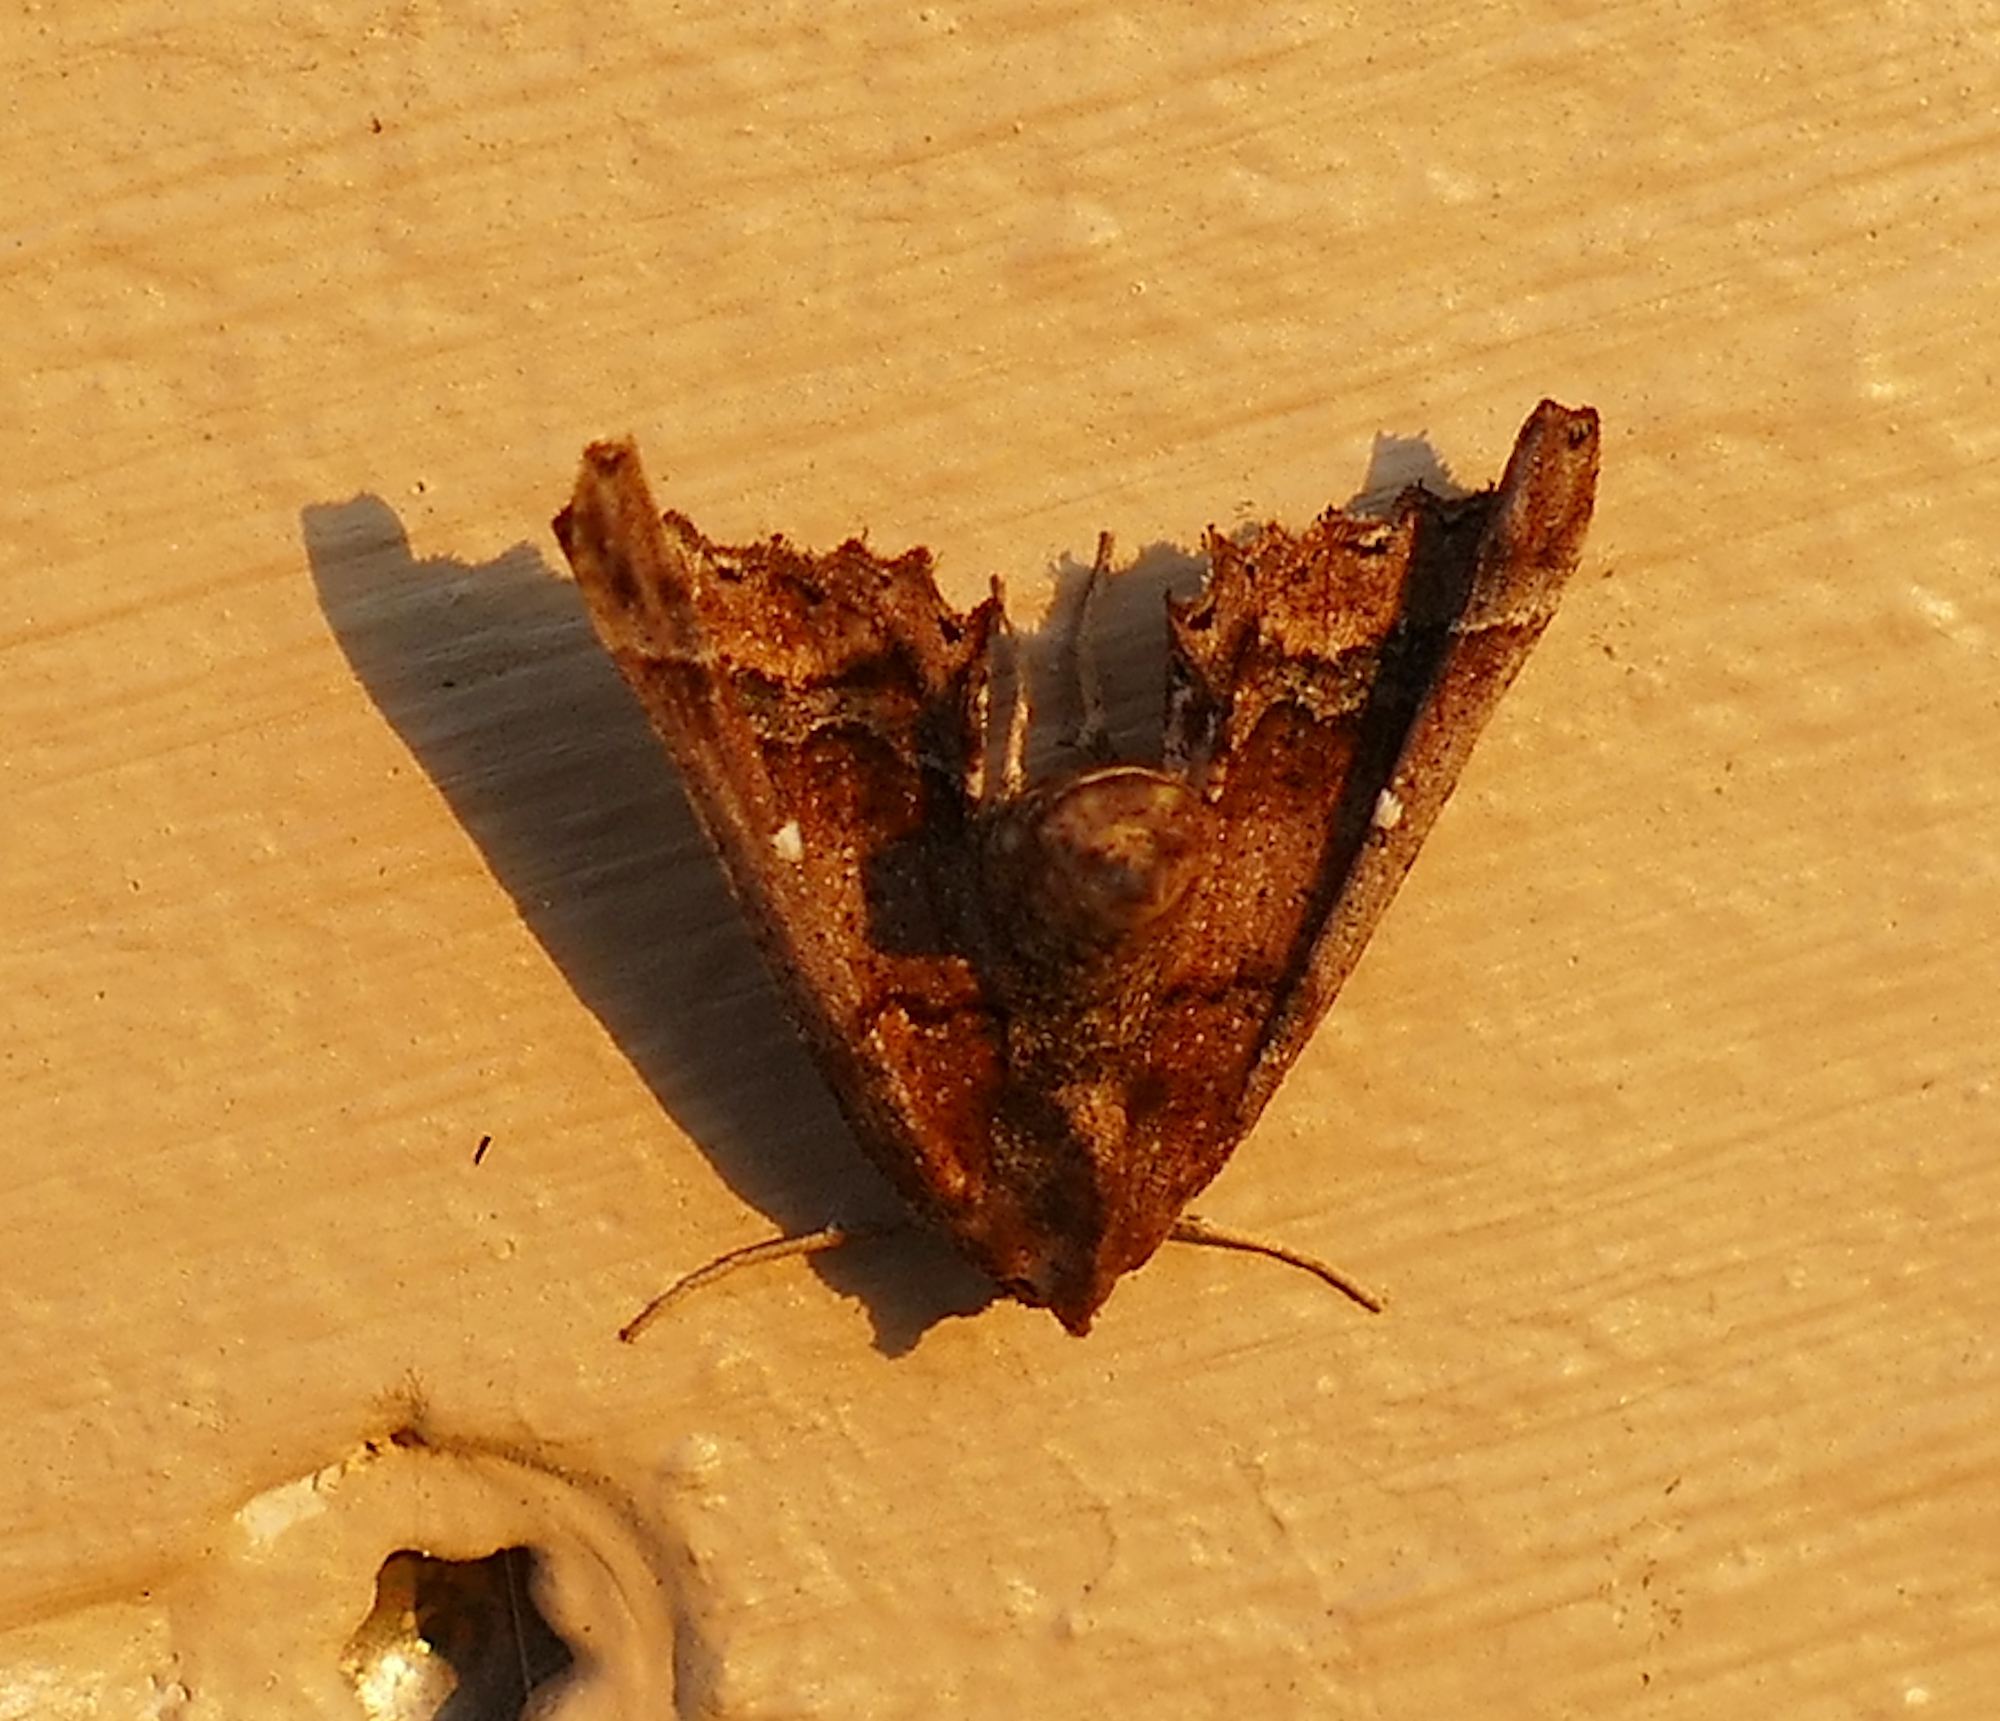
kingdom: Animalia
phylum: Arthropoda
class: Insecta
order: Lepidoptera
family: Geometridae
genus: Pero
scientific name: Pero meskaria
